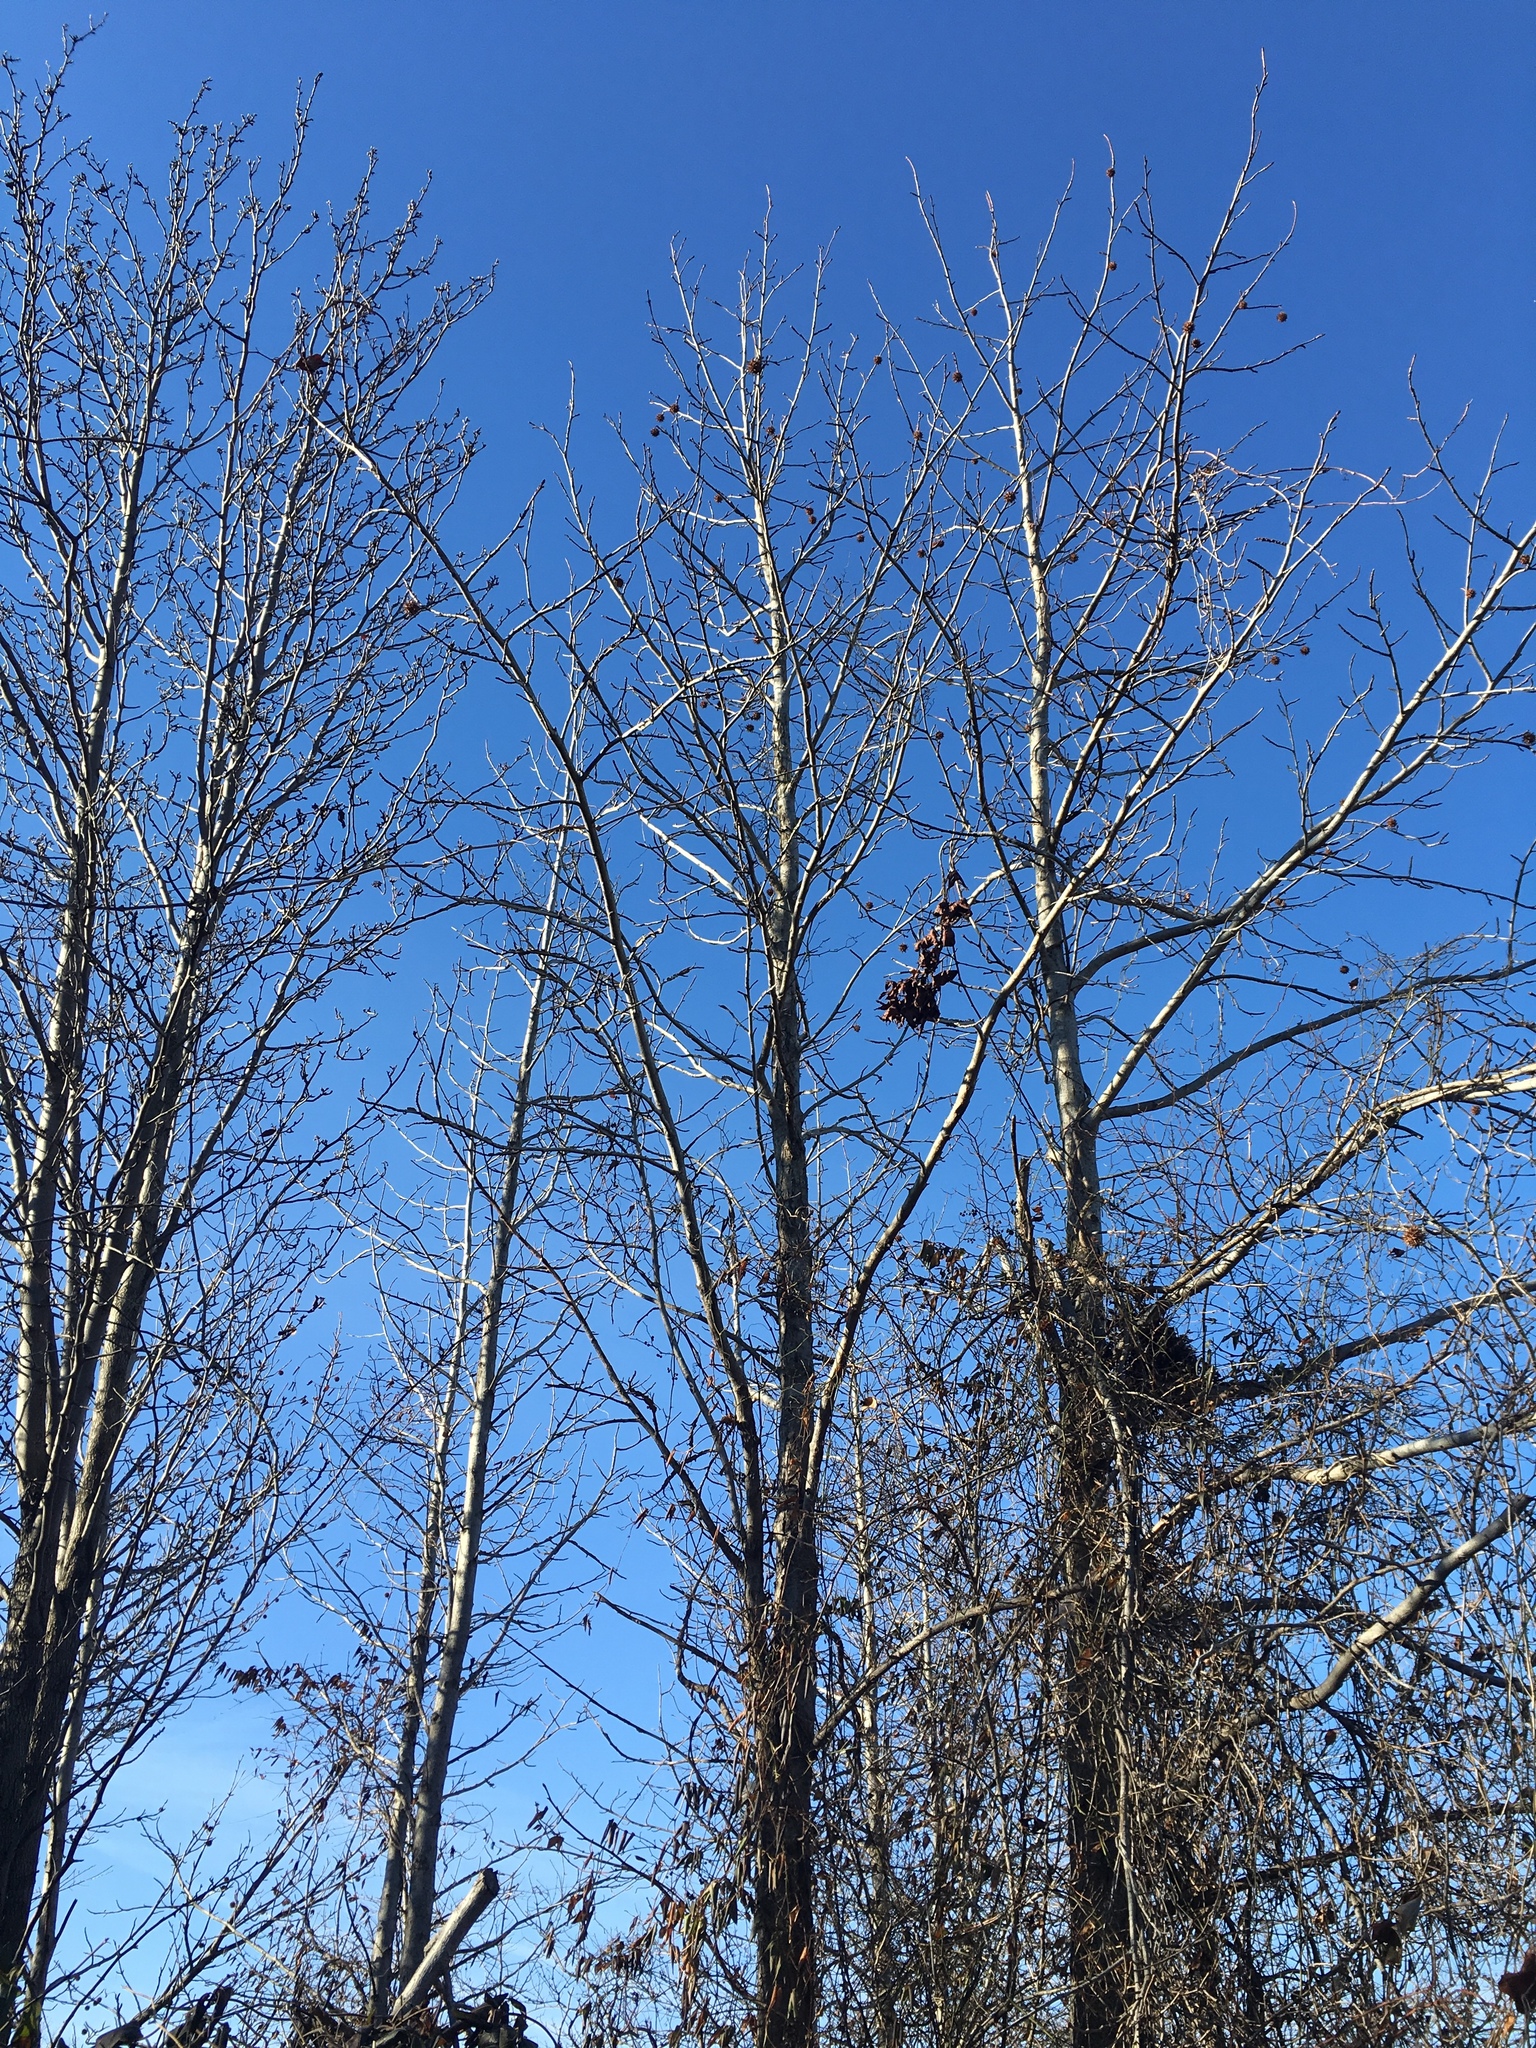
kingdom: Plantae
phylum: Tracheophyta
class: Magnoliopsida
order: Saxifragales
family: Altingiaceae
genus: Liquidambar
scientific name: Liquidambar styraciflua
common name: Sweet gum
